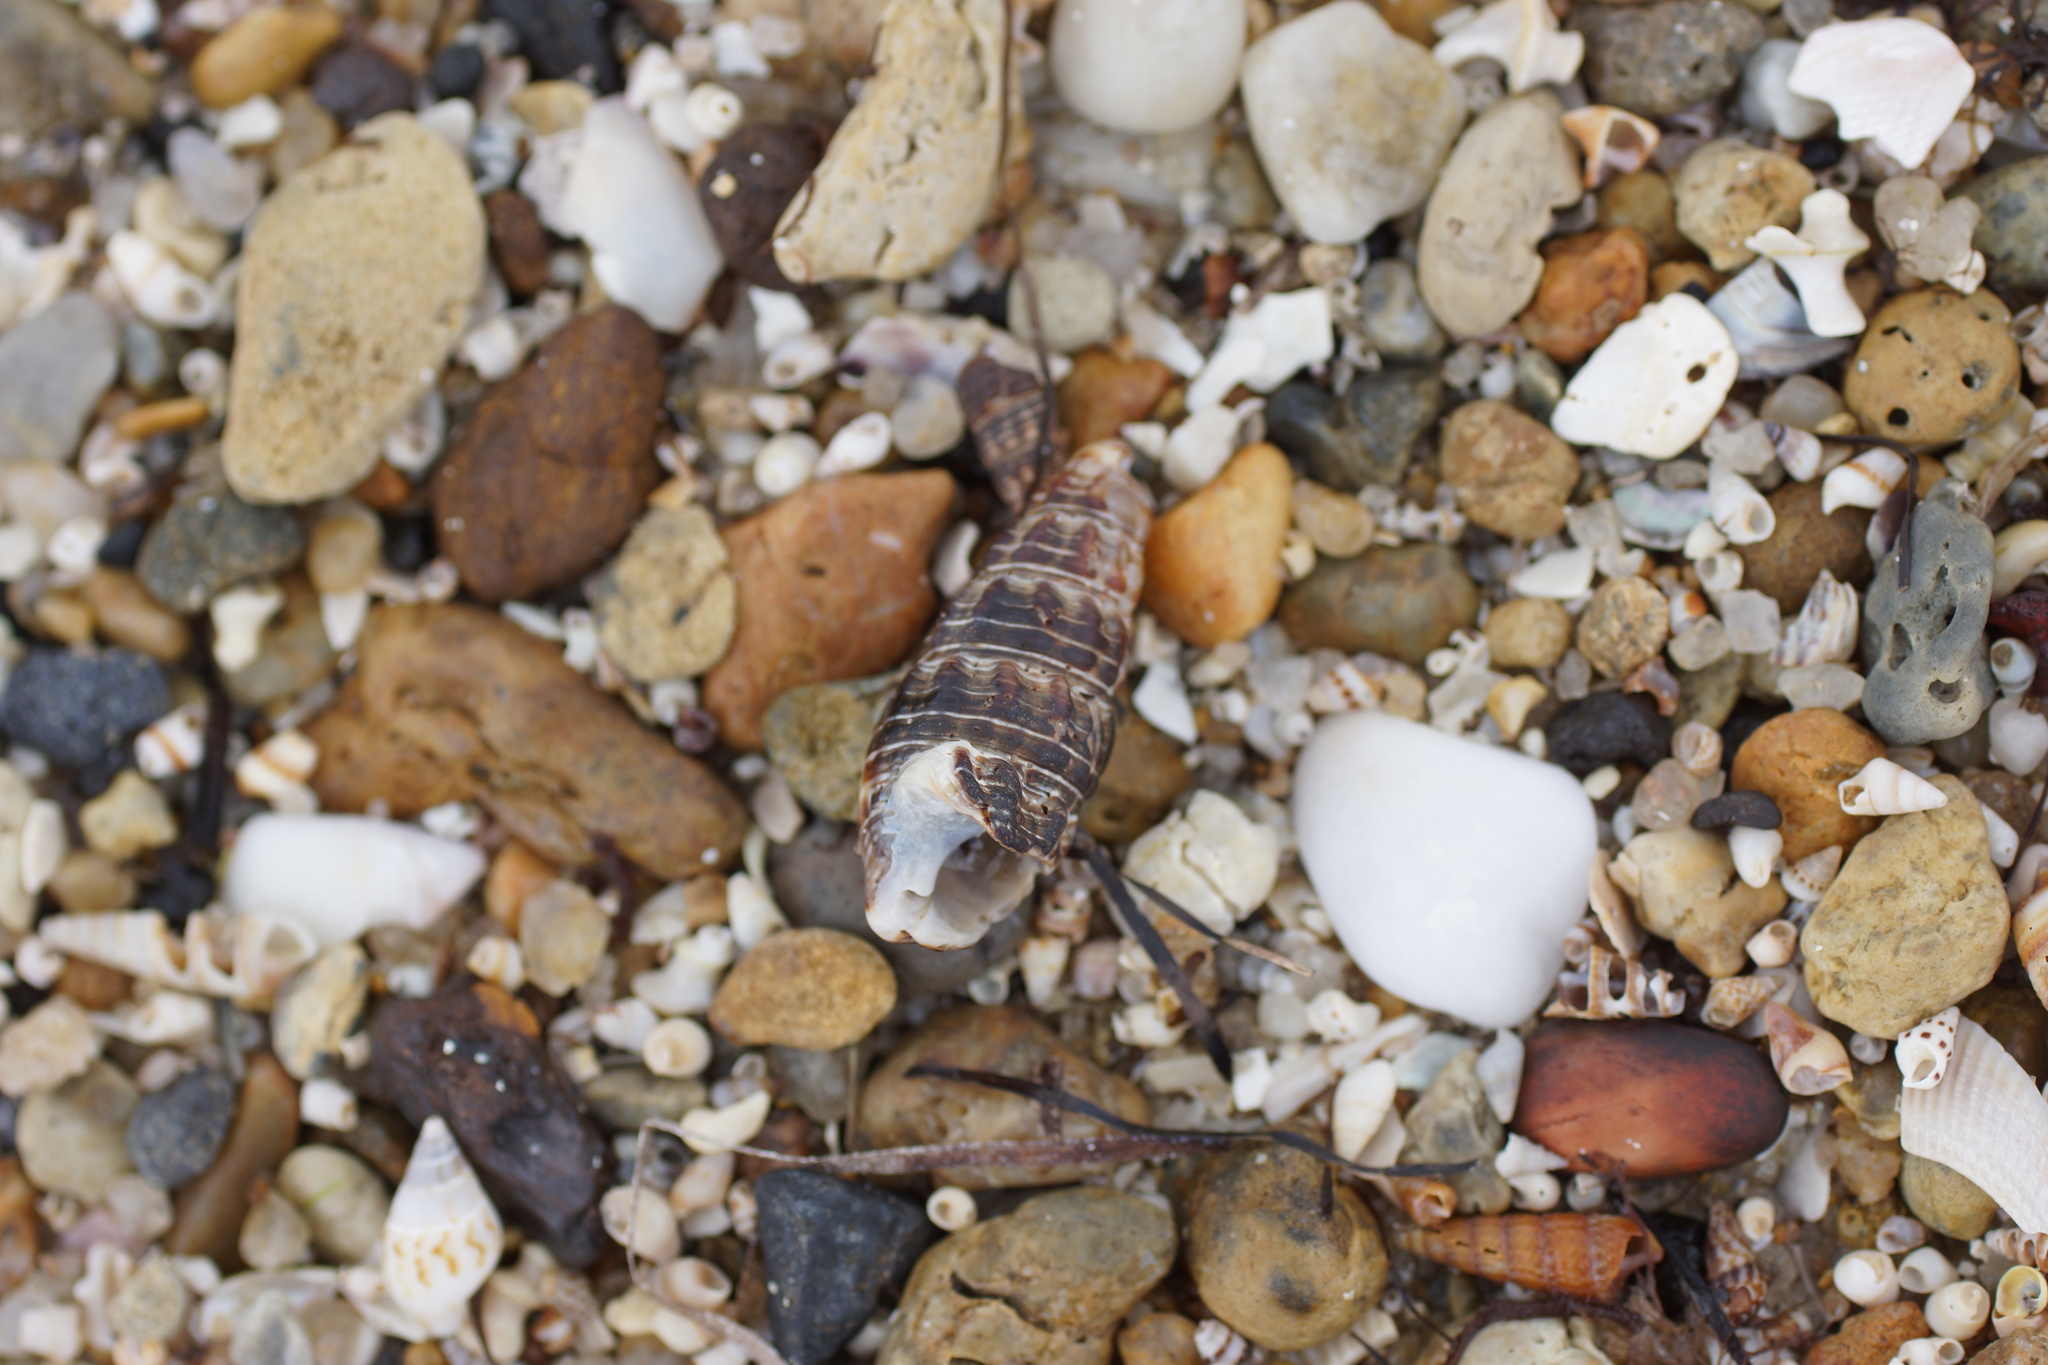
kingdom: Animalia
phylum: Mollusca
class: Gastropoda
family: Batillariidae
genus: Batillaria
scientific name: Batillaria australis
